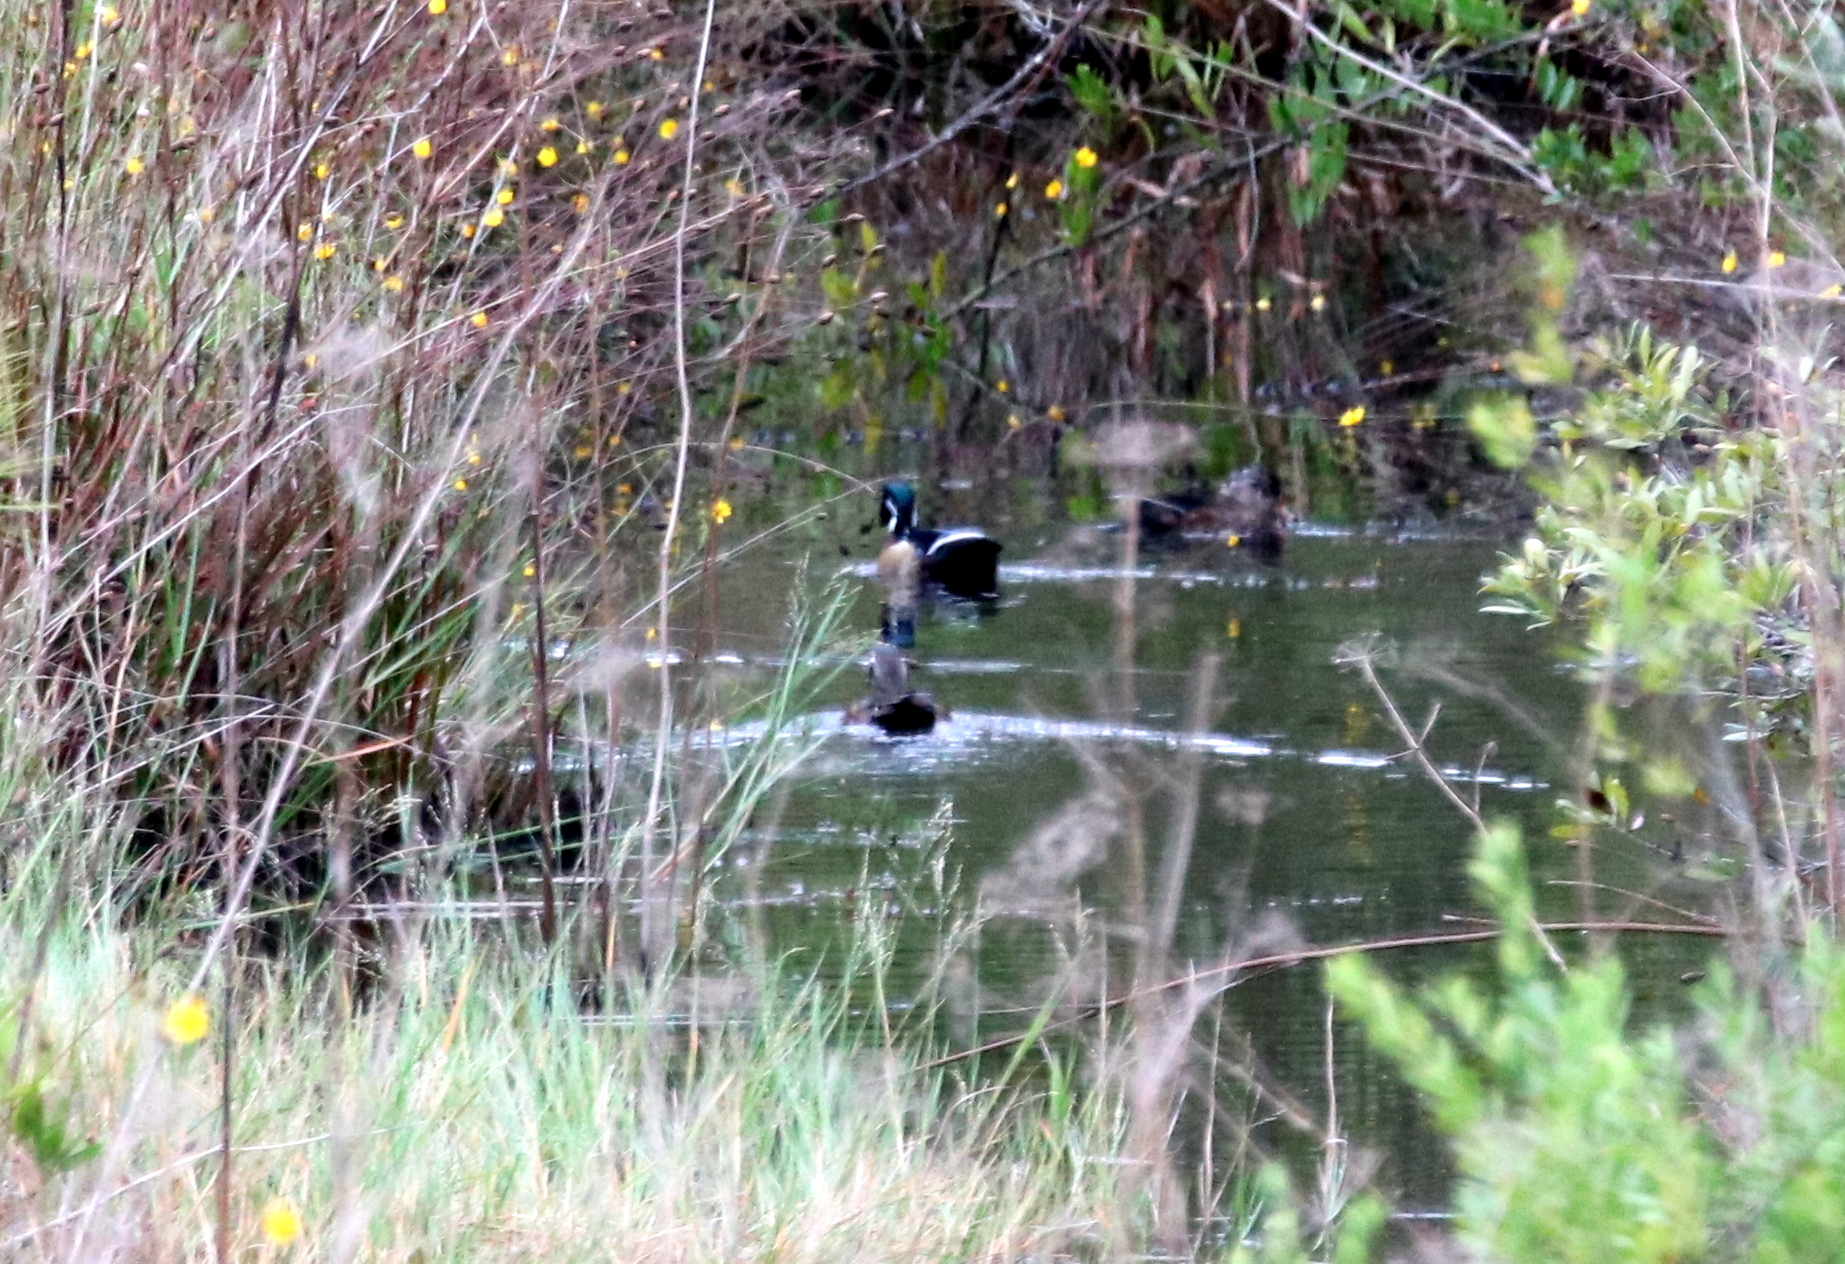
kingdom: Animalia
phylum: Chordata
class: Aves
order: Anseriformes
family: Anatidae
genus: Aix
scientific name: Aix sponsa
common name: Wood duck
